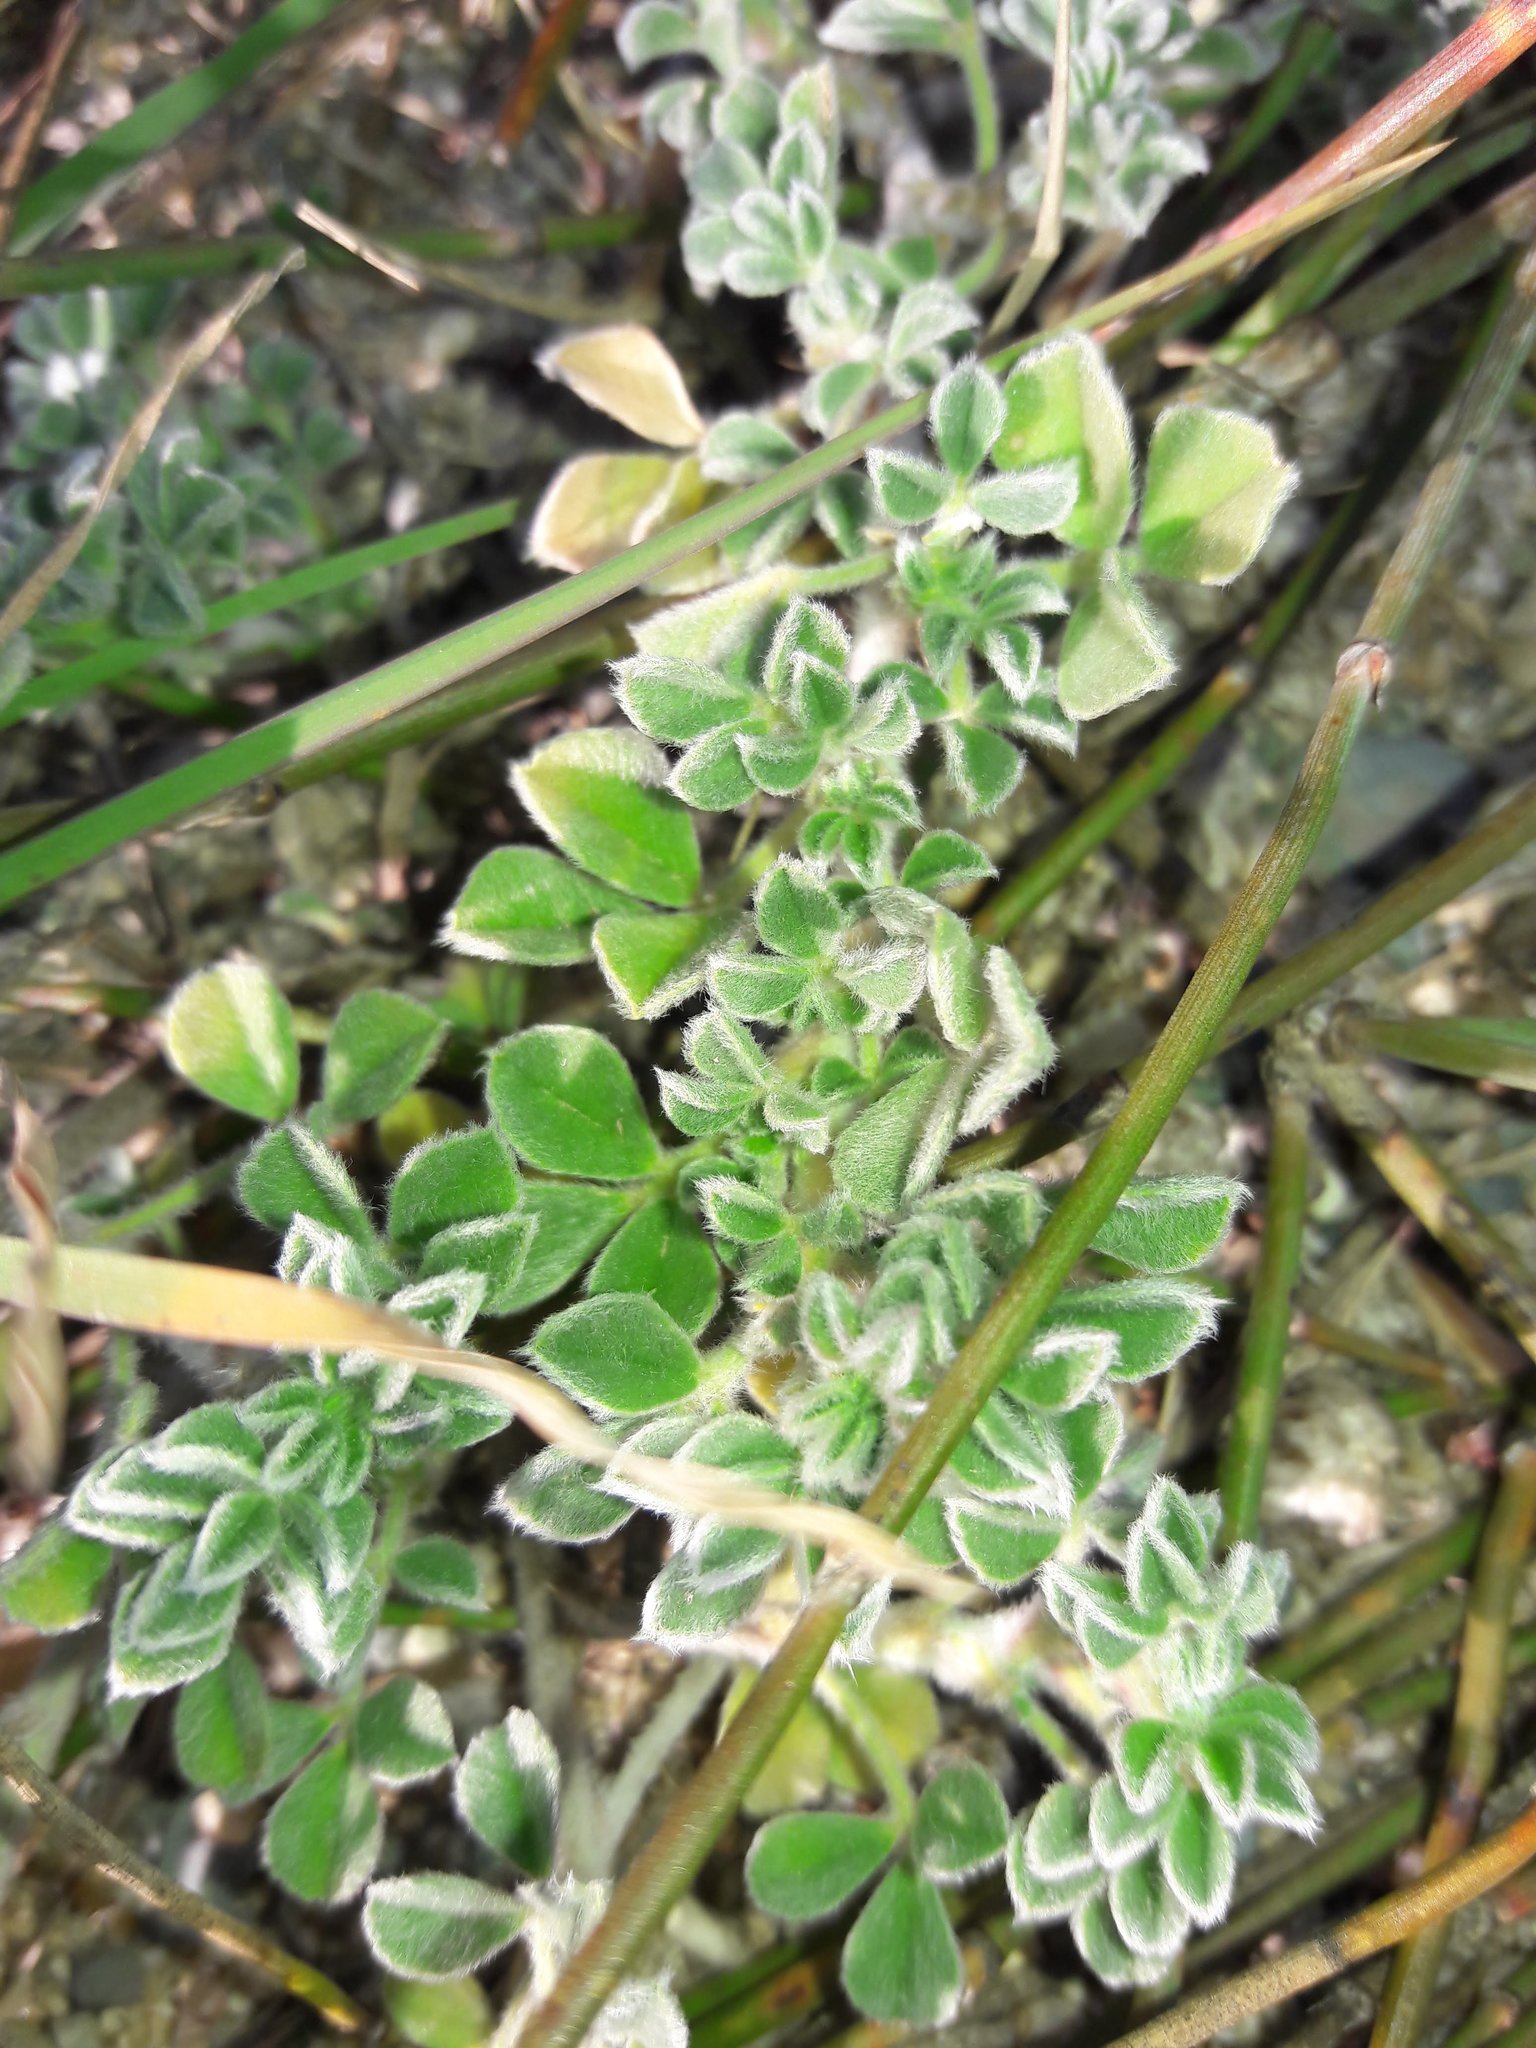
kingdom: Plantae
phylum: Tracheophyta
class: Magnoliopsida
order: Fabales
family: Fabaceae
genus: Medicago
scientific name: Medicago marina
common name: Sea medick
